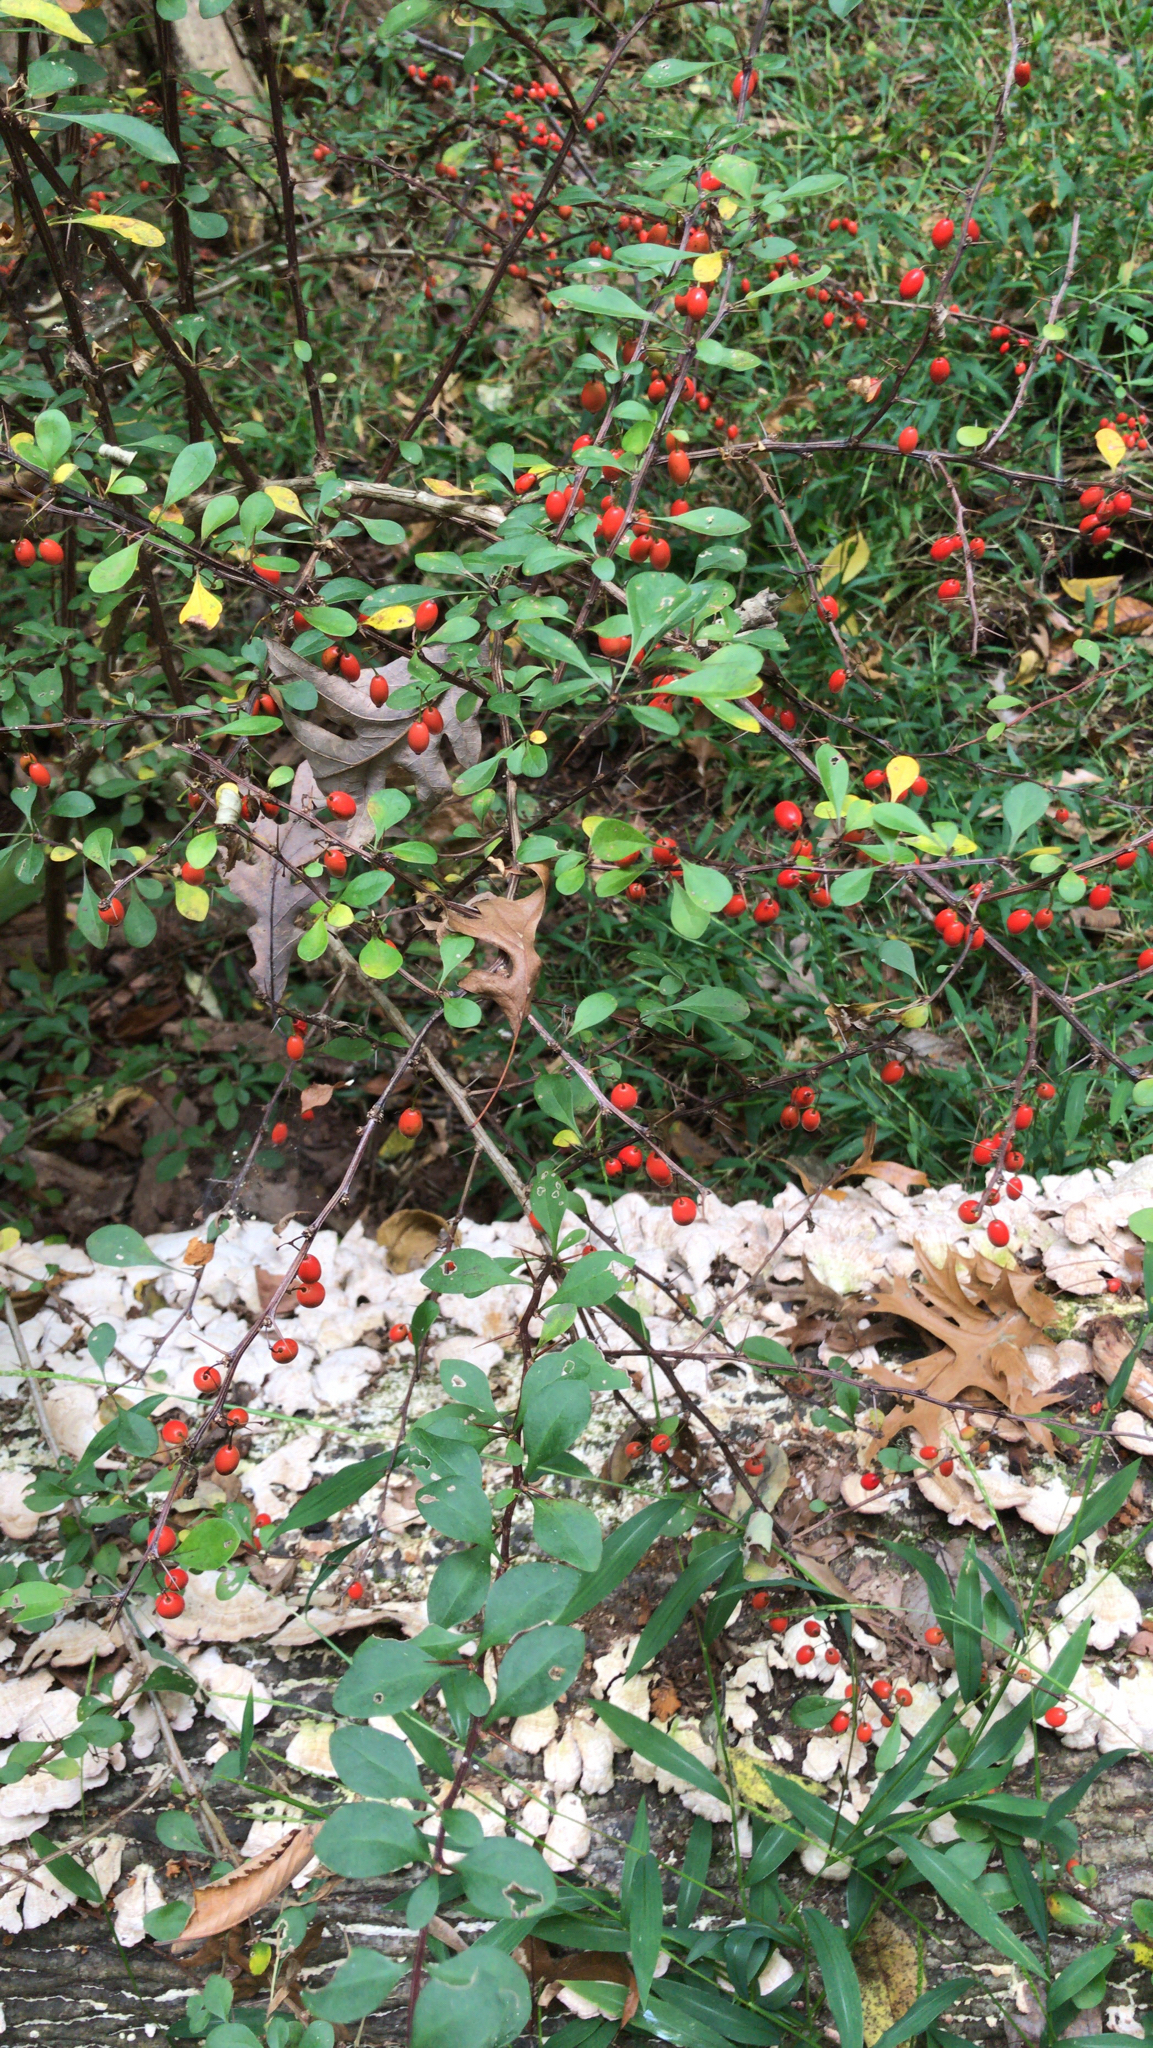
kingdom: Plantae
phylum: Tracheophyta
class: Magnoliopsida
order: Ranunculales
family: Berberidaceae
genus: Berberis
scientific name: Berberis thunbergii
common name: Japanese barberry
